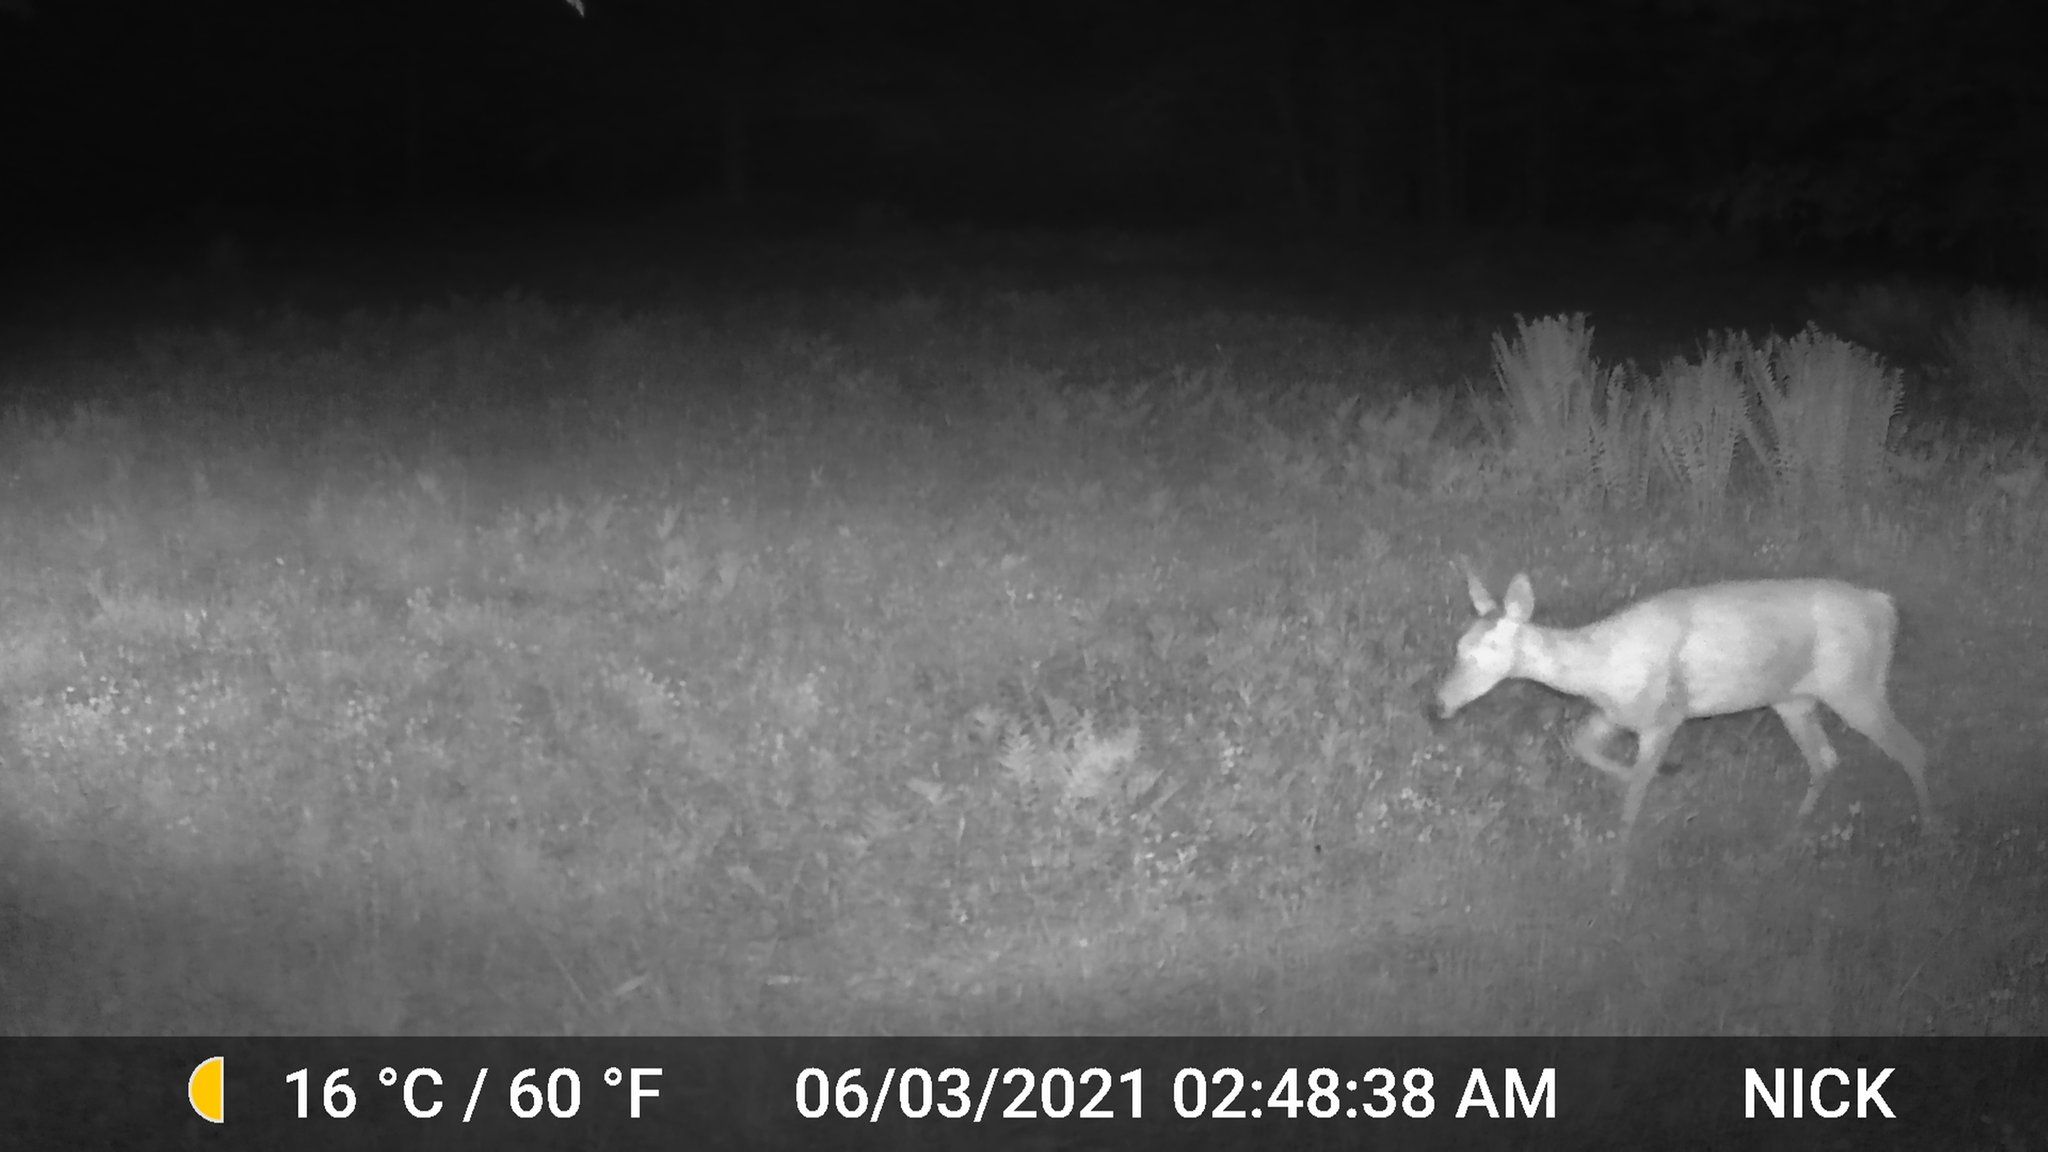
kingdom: Animalia
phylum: Chordata
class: Mammalia
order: Artiodactyla
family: Cervidae
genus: Odocoileus
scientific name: Odocoileus virginianus
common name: White-tailed deer
